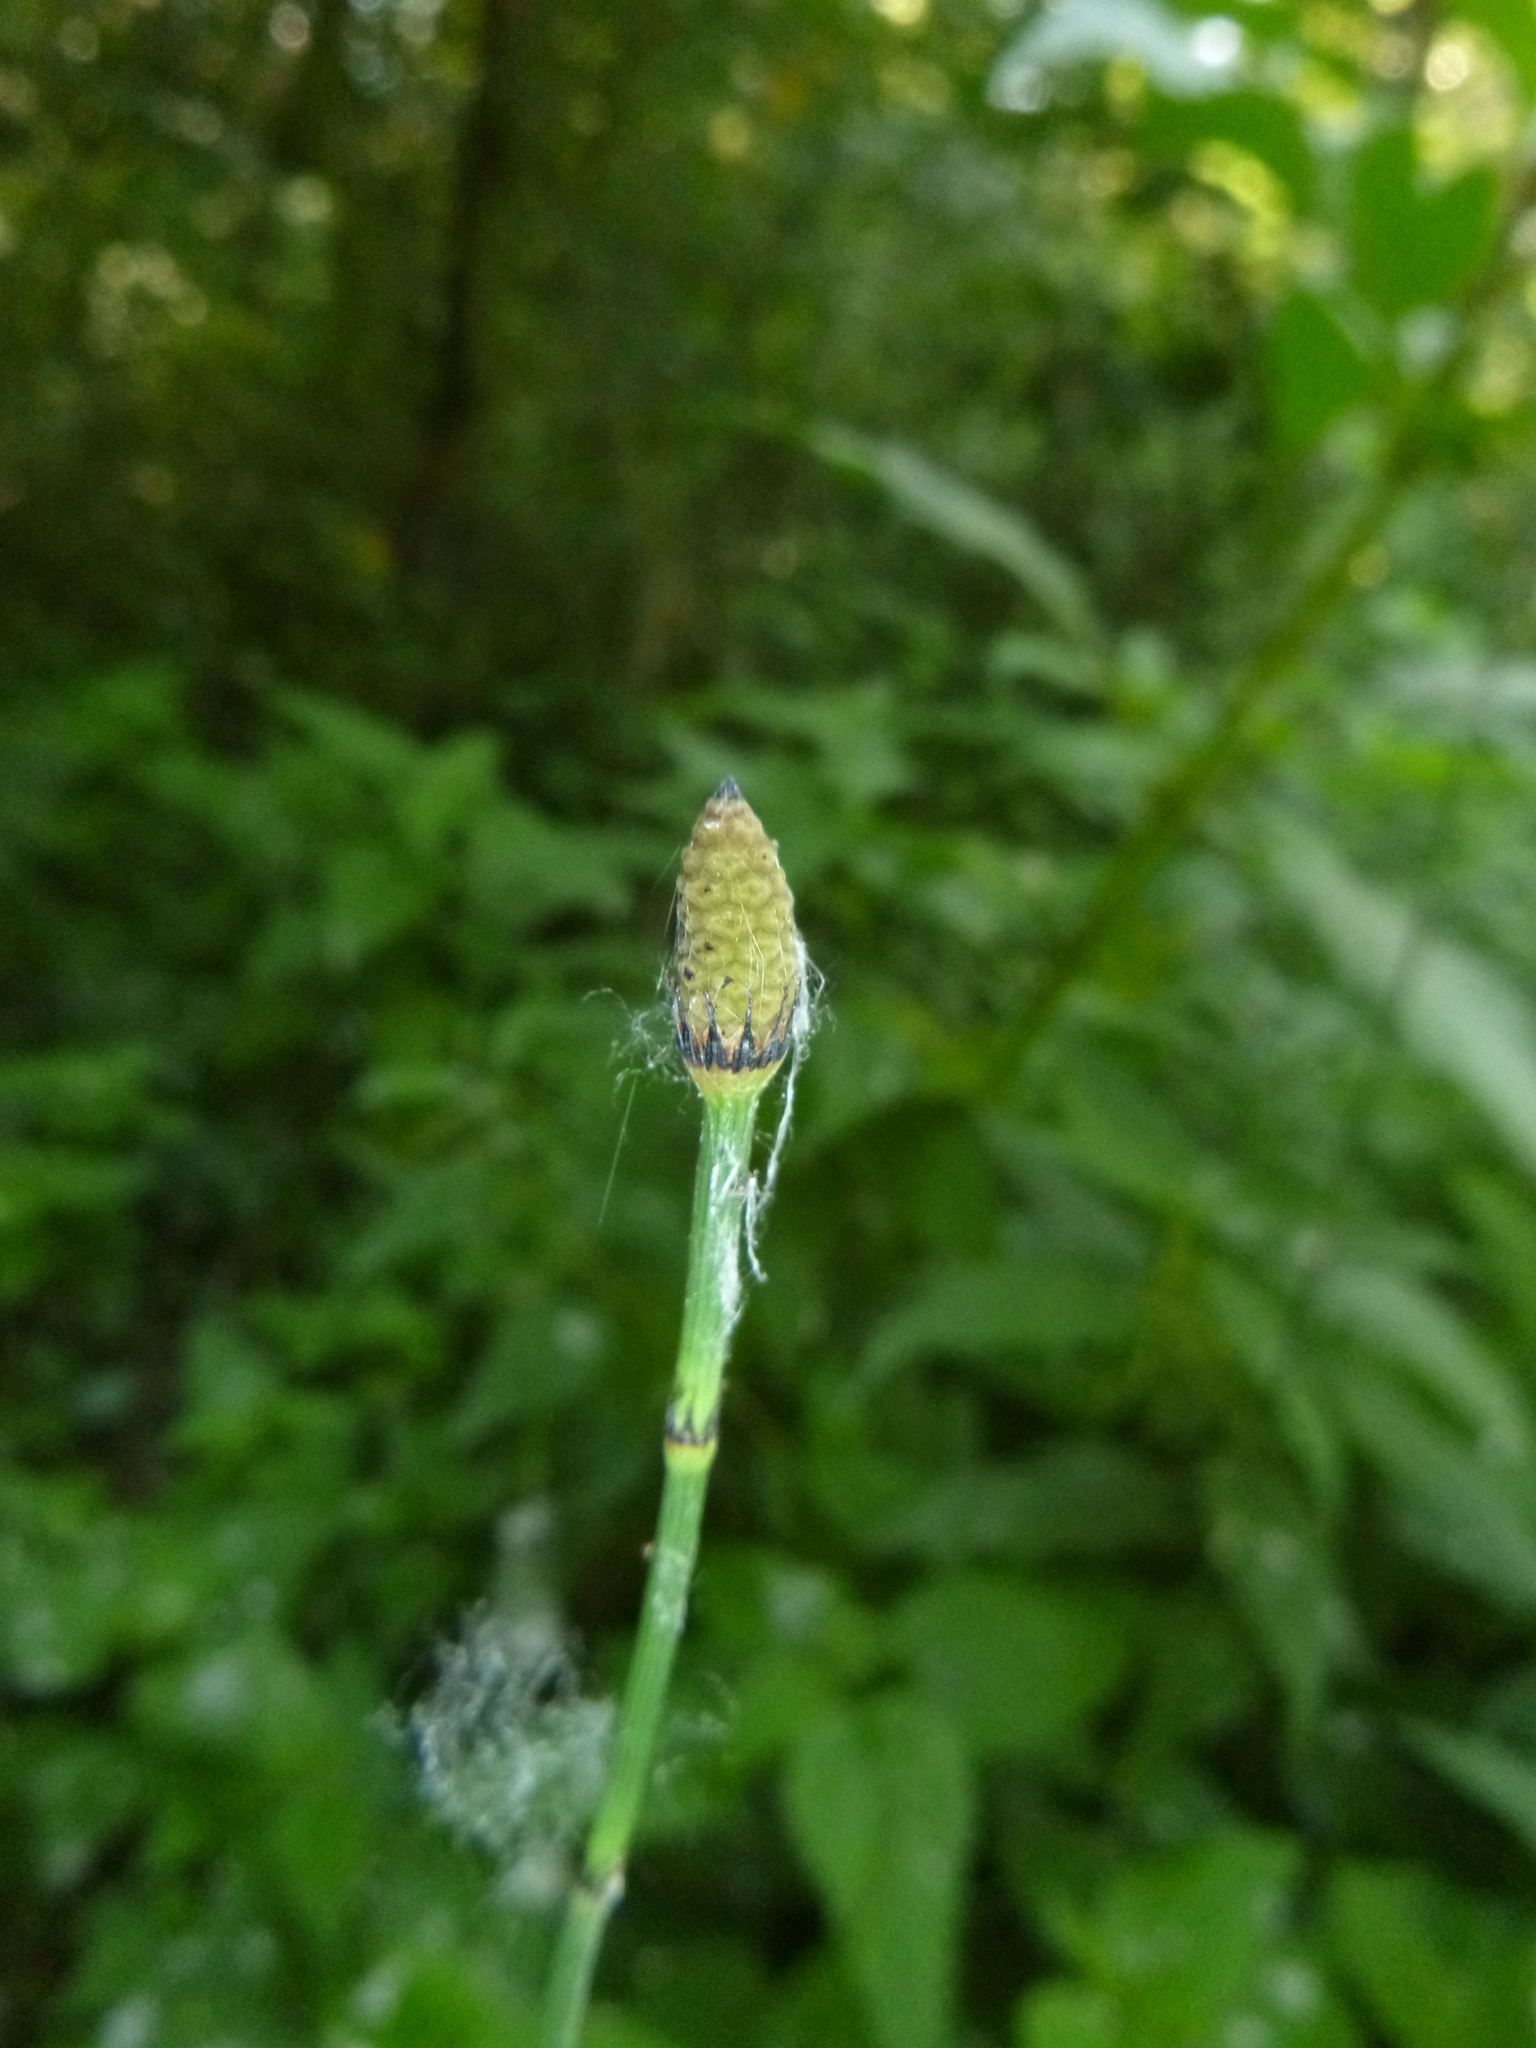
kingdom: Plantae
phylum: Tracheophyta
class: Polypodiopsida
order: Equisetales
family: Equisetaceae
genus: Equisetum
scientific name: Equisetum hyemale
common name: Rough horsetail
